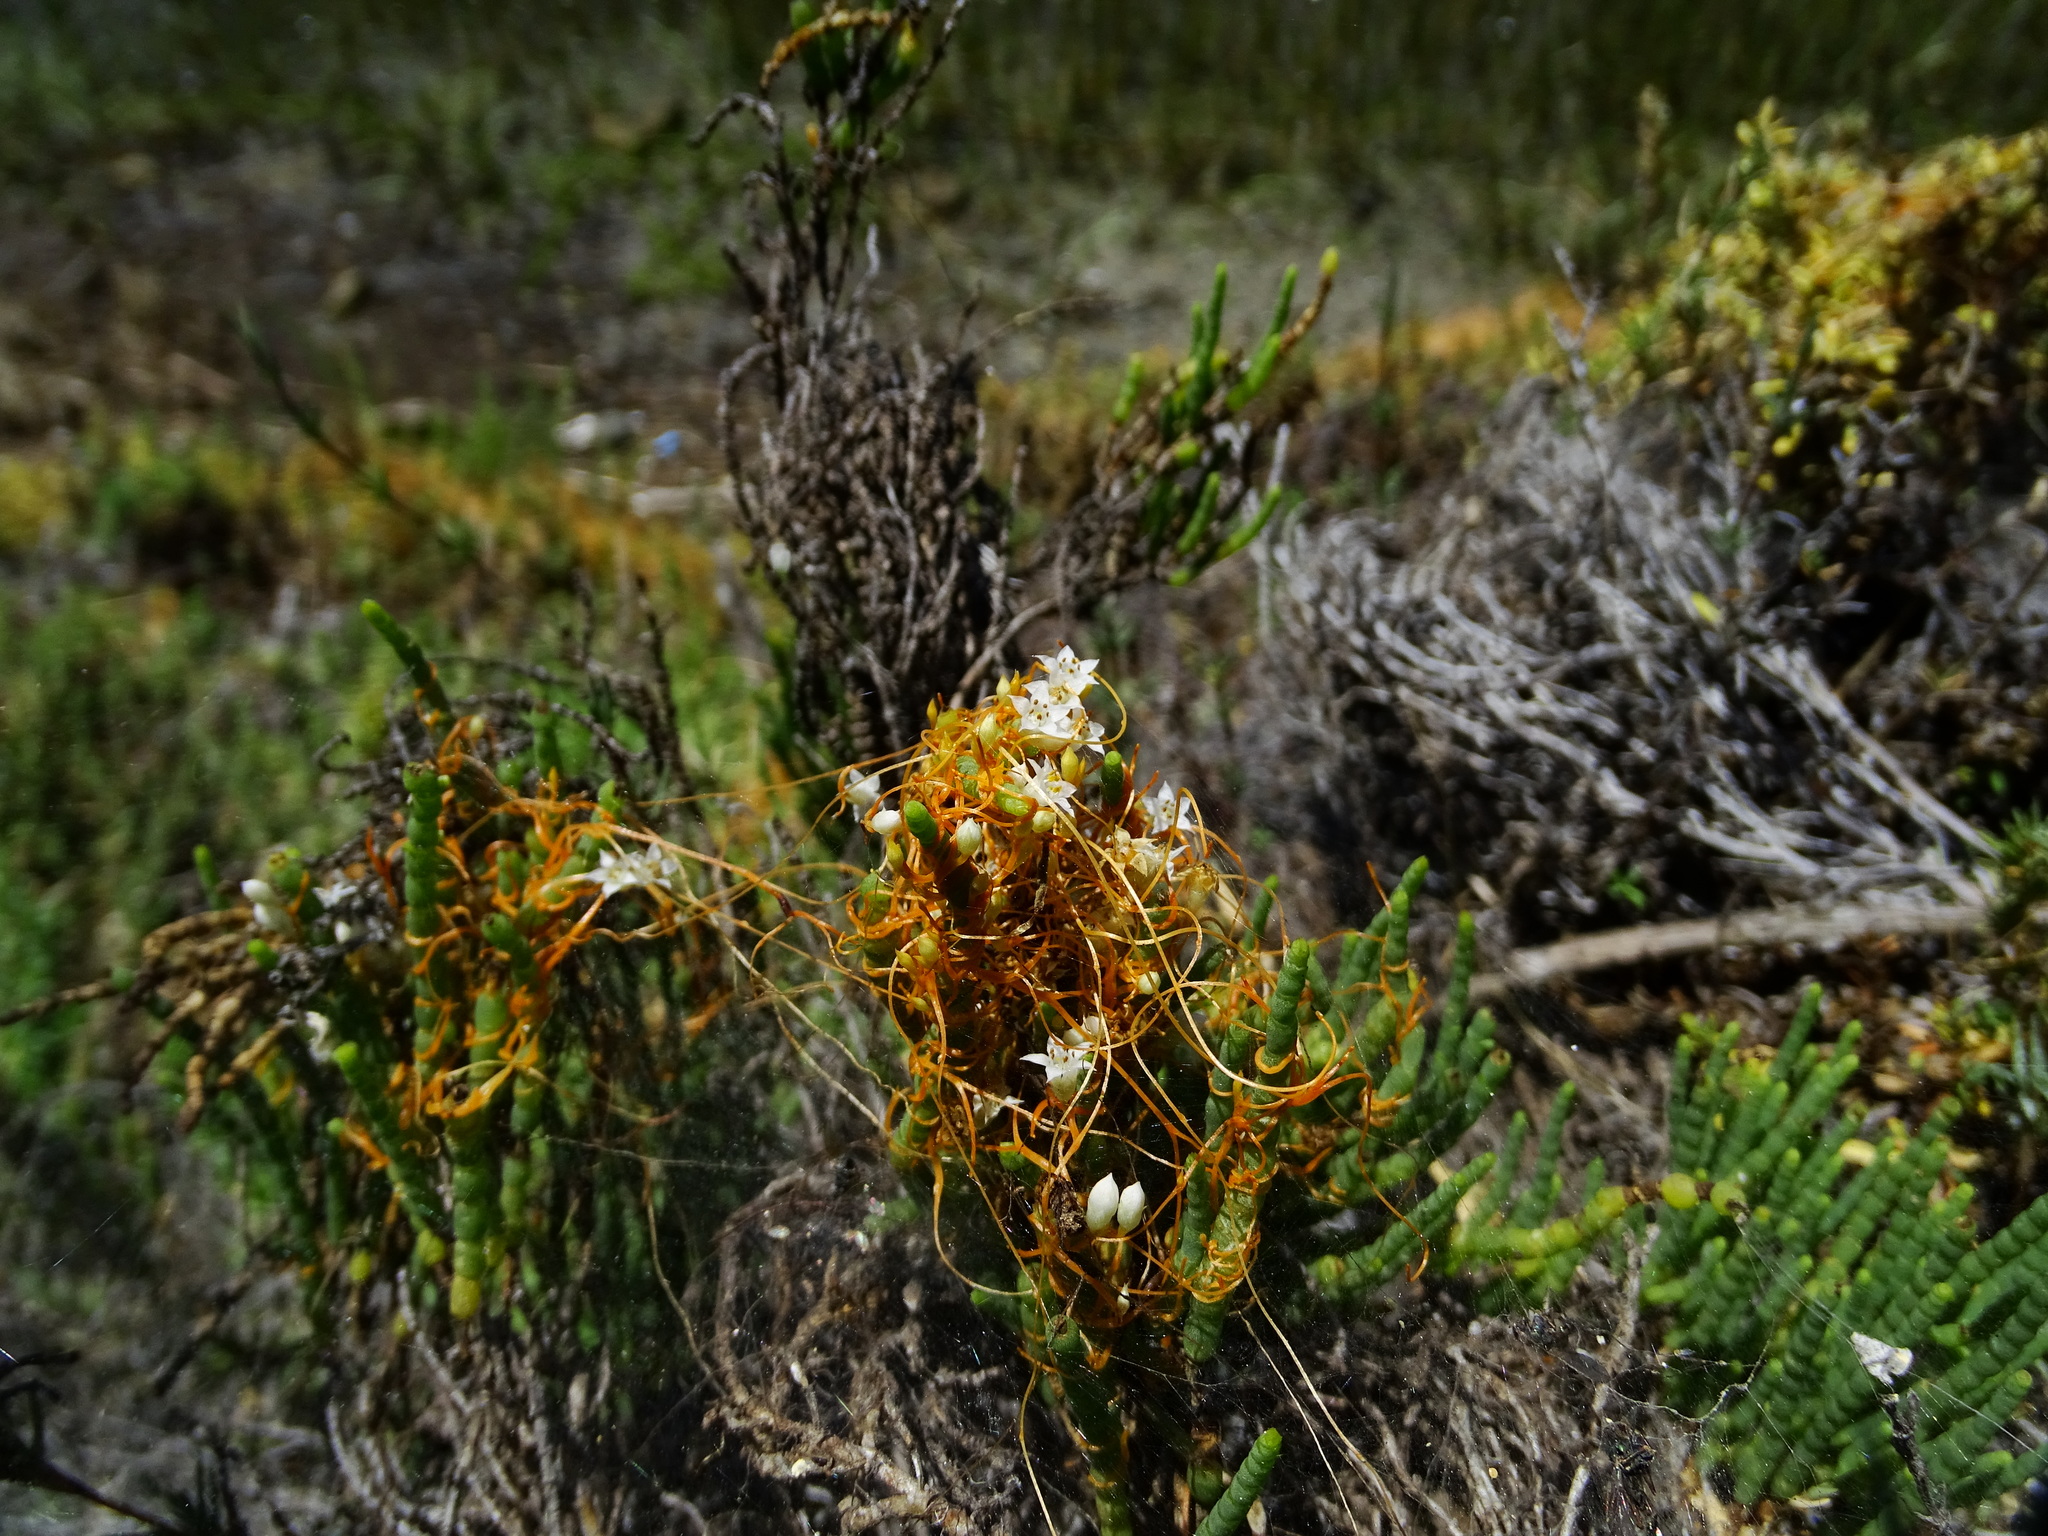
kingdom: Plantae
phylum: Tracheophyta
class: Magnoliopsida
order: Solanales
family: Convolvulaceae
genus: Cuscuta
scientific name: Cuscuta pacifica
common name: Large saltmarsh dodder
